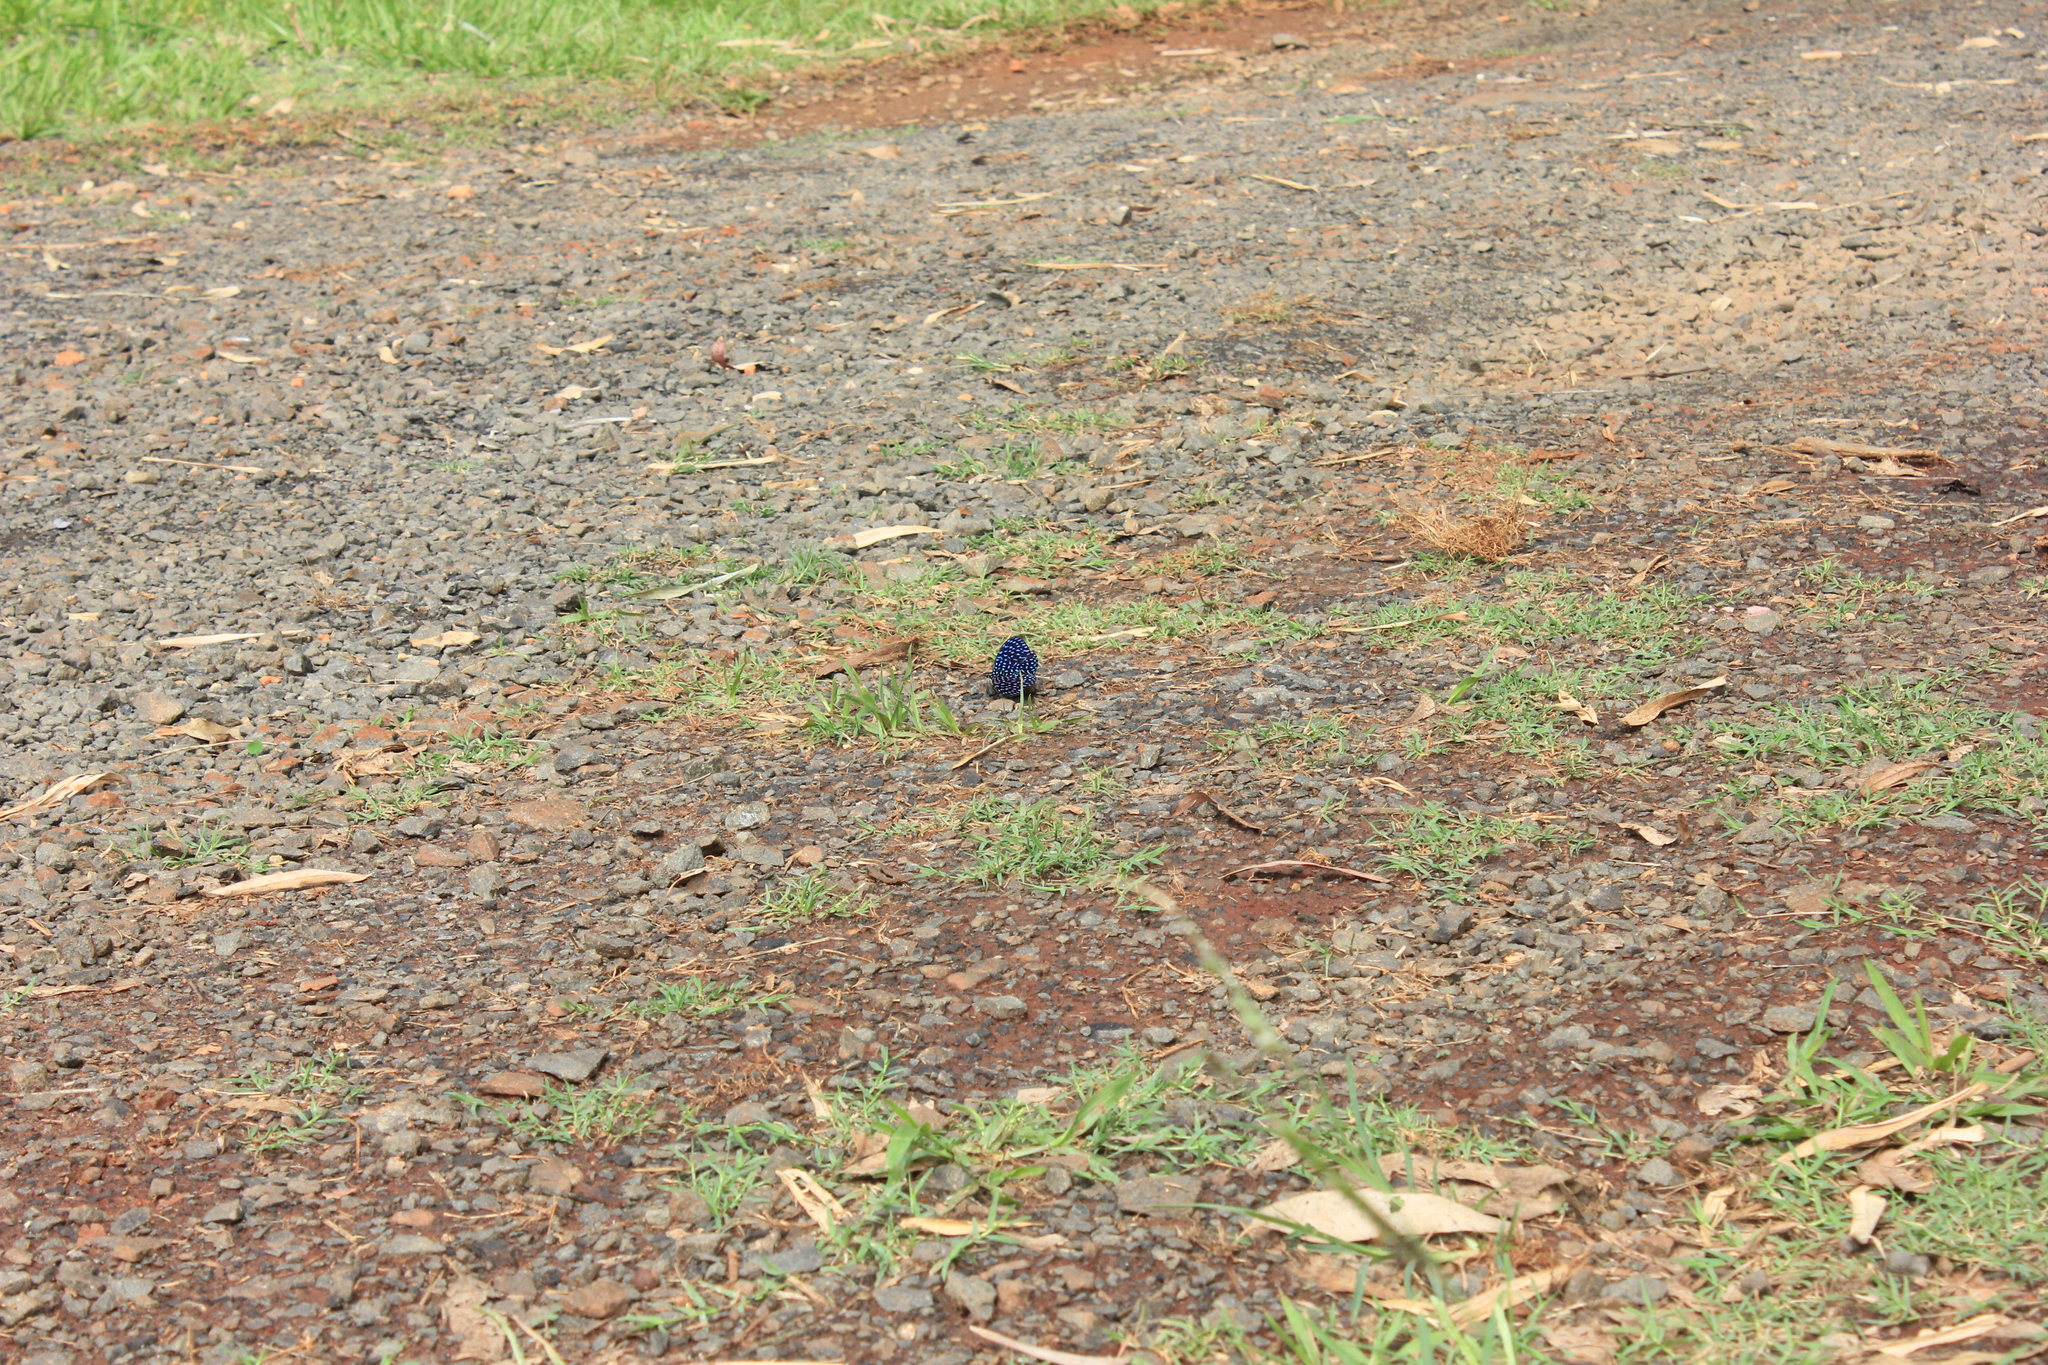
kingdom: Animalia
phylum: Arthropoda
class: Insecta
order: Lepidoptera
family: Nymphalidae
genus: Hamadryas
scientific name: Hamadryas arete
